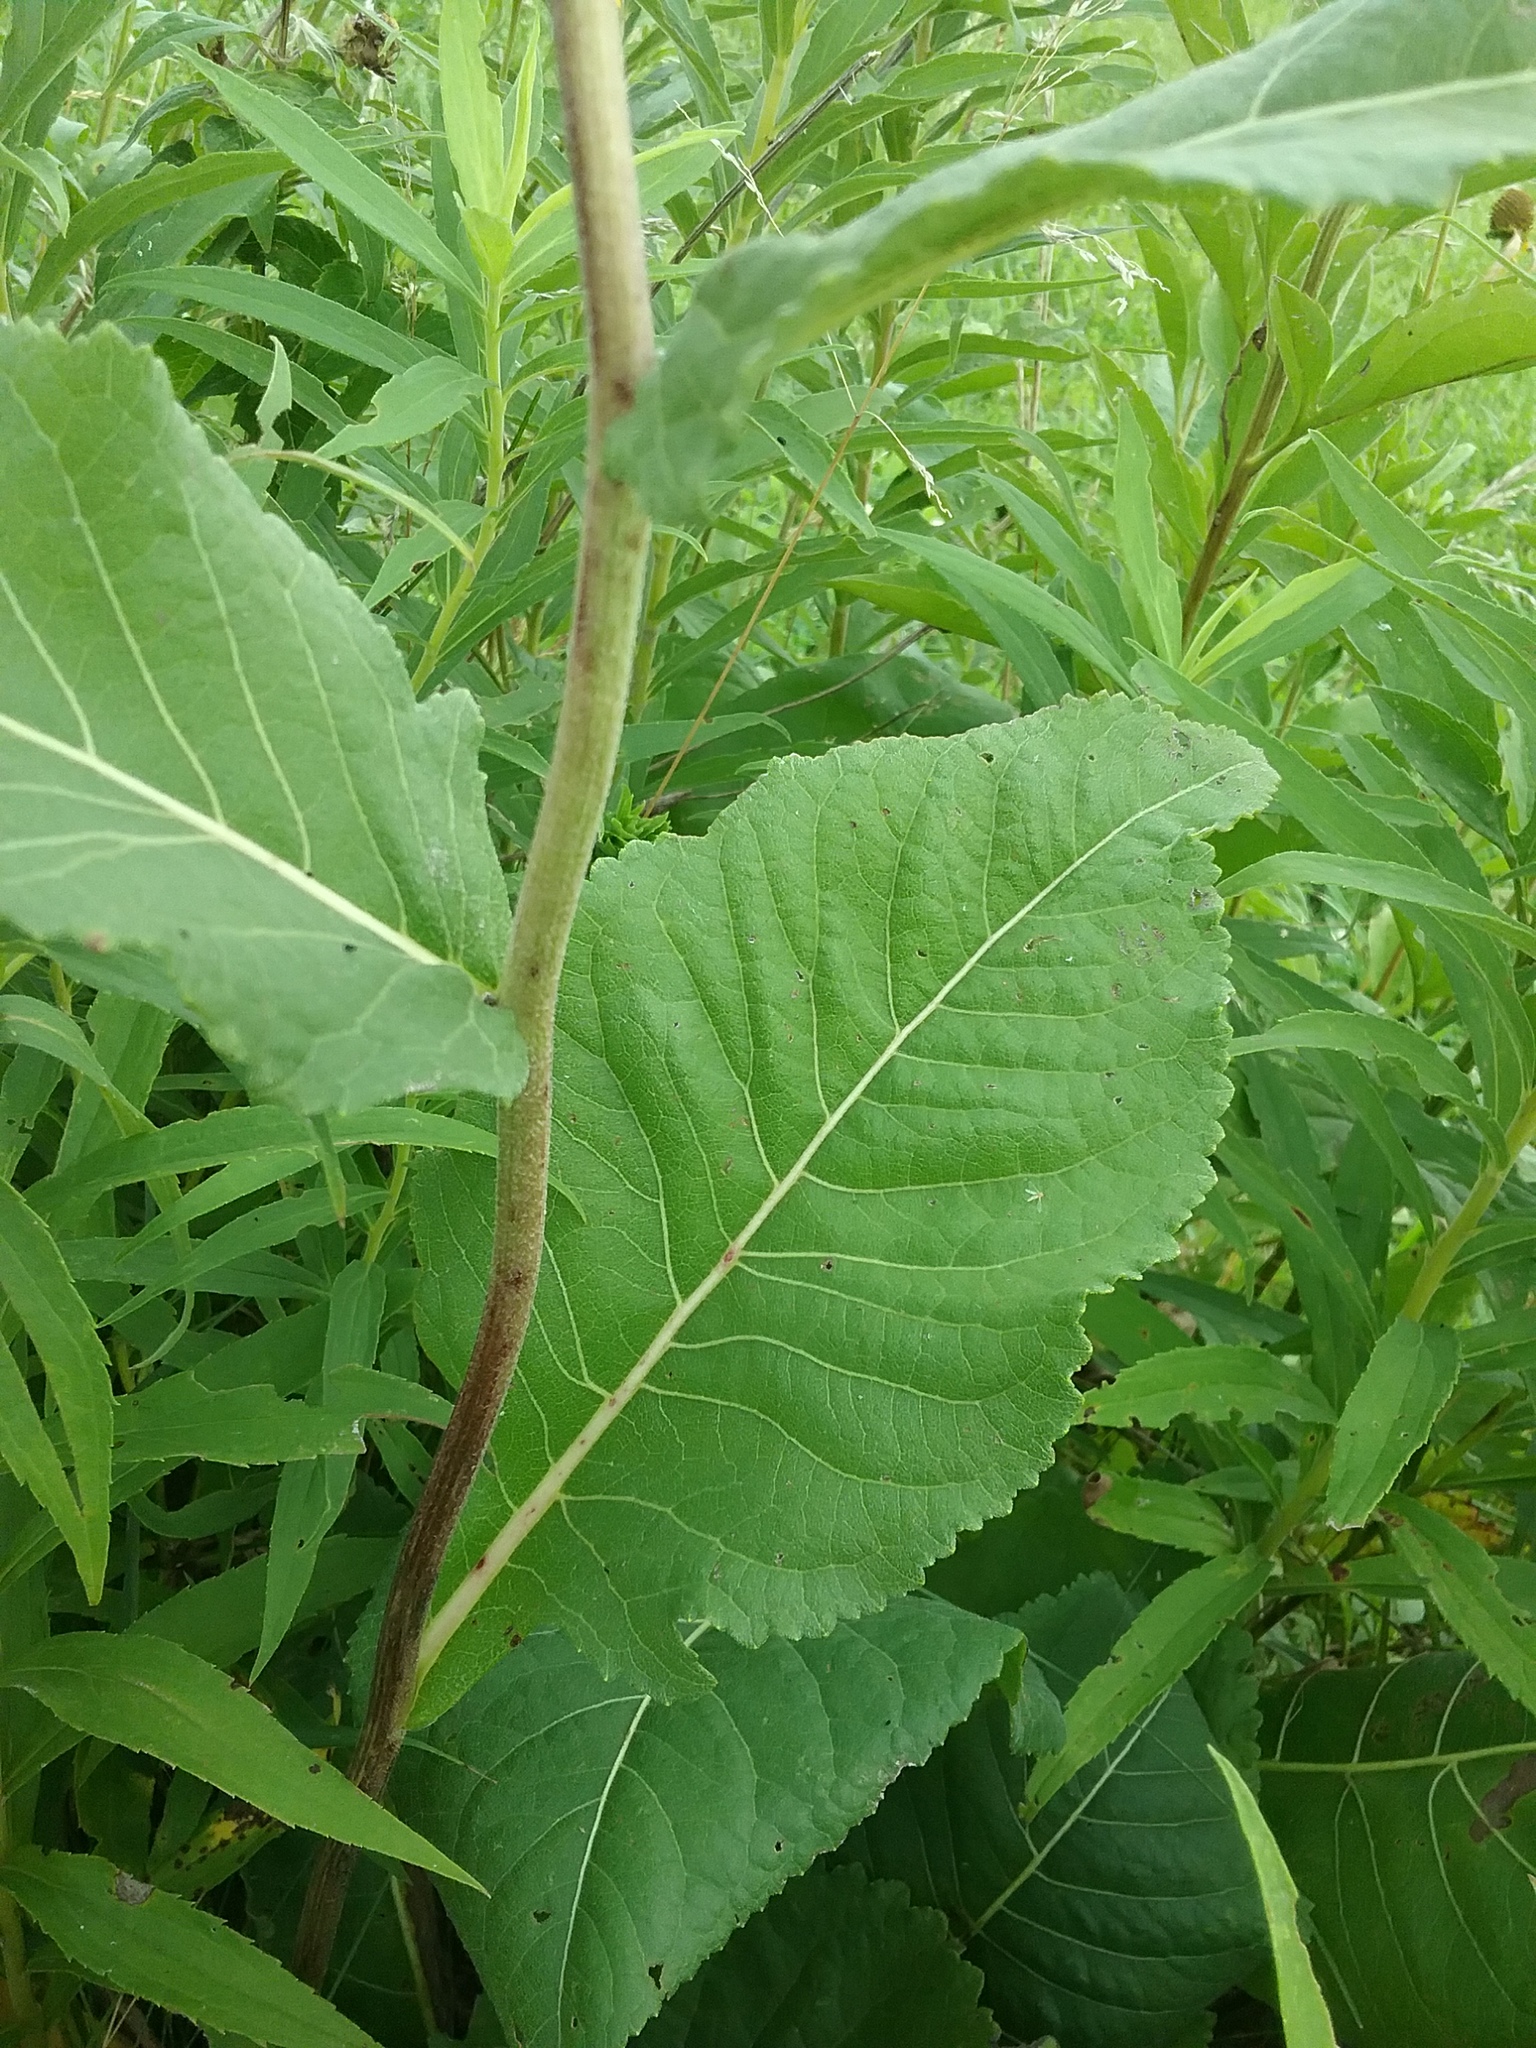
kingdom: Plantae
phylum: Tracheophyta
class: Magnoliopsida
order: Asterales
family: Asteraceae
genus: Parthenium
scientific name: Parthenium integrifolium
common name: American feverfew
